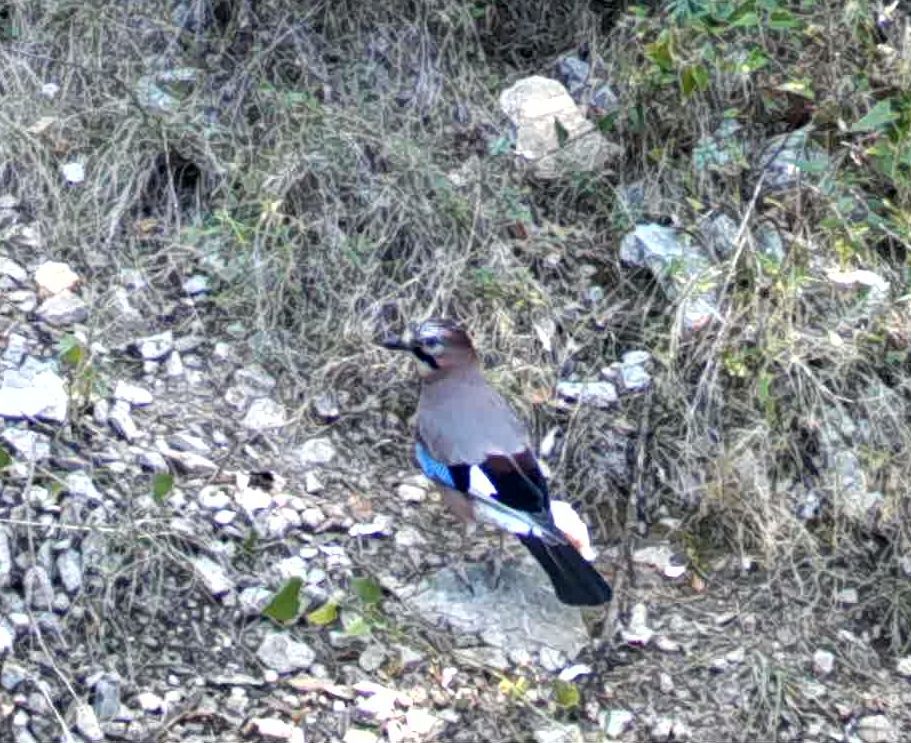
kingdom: Animalia
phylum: Chordata
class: Aves
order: Passeriformes
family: Corvidae
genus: Garrulus
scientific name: Garrulus glandarius
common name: Eurasian jay
